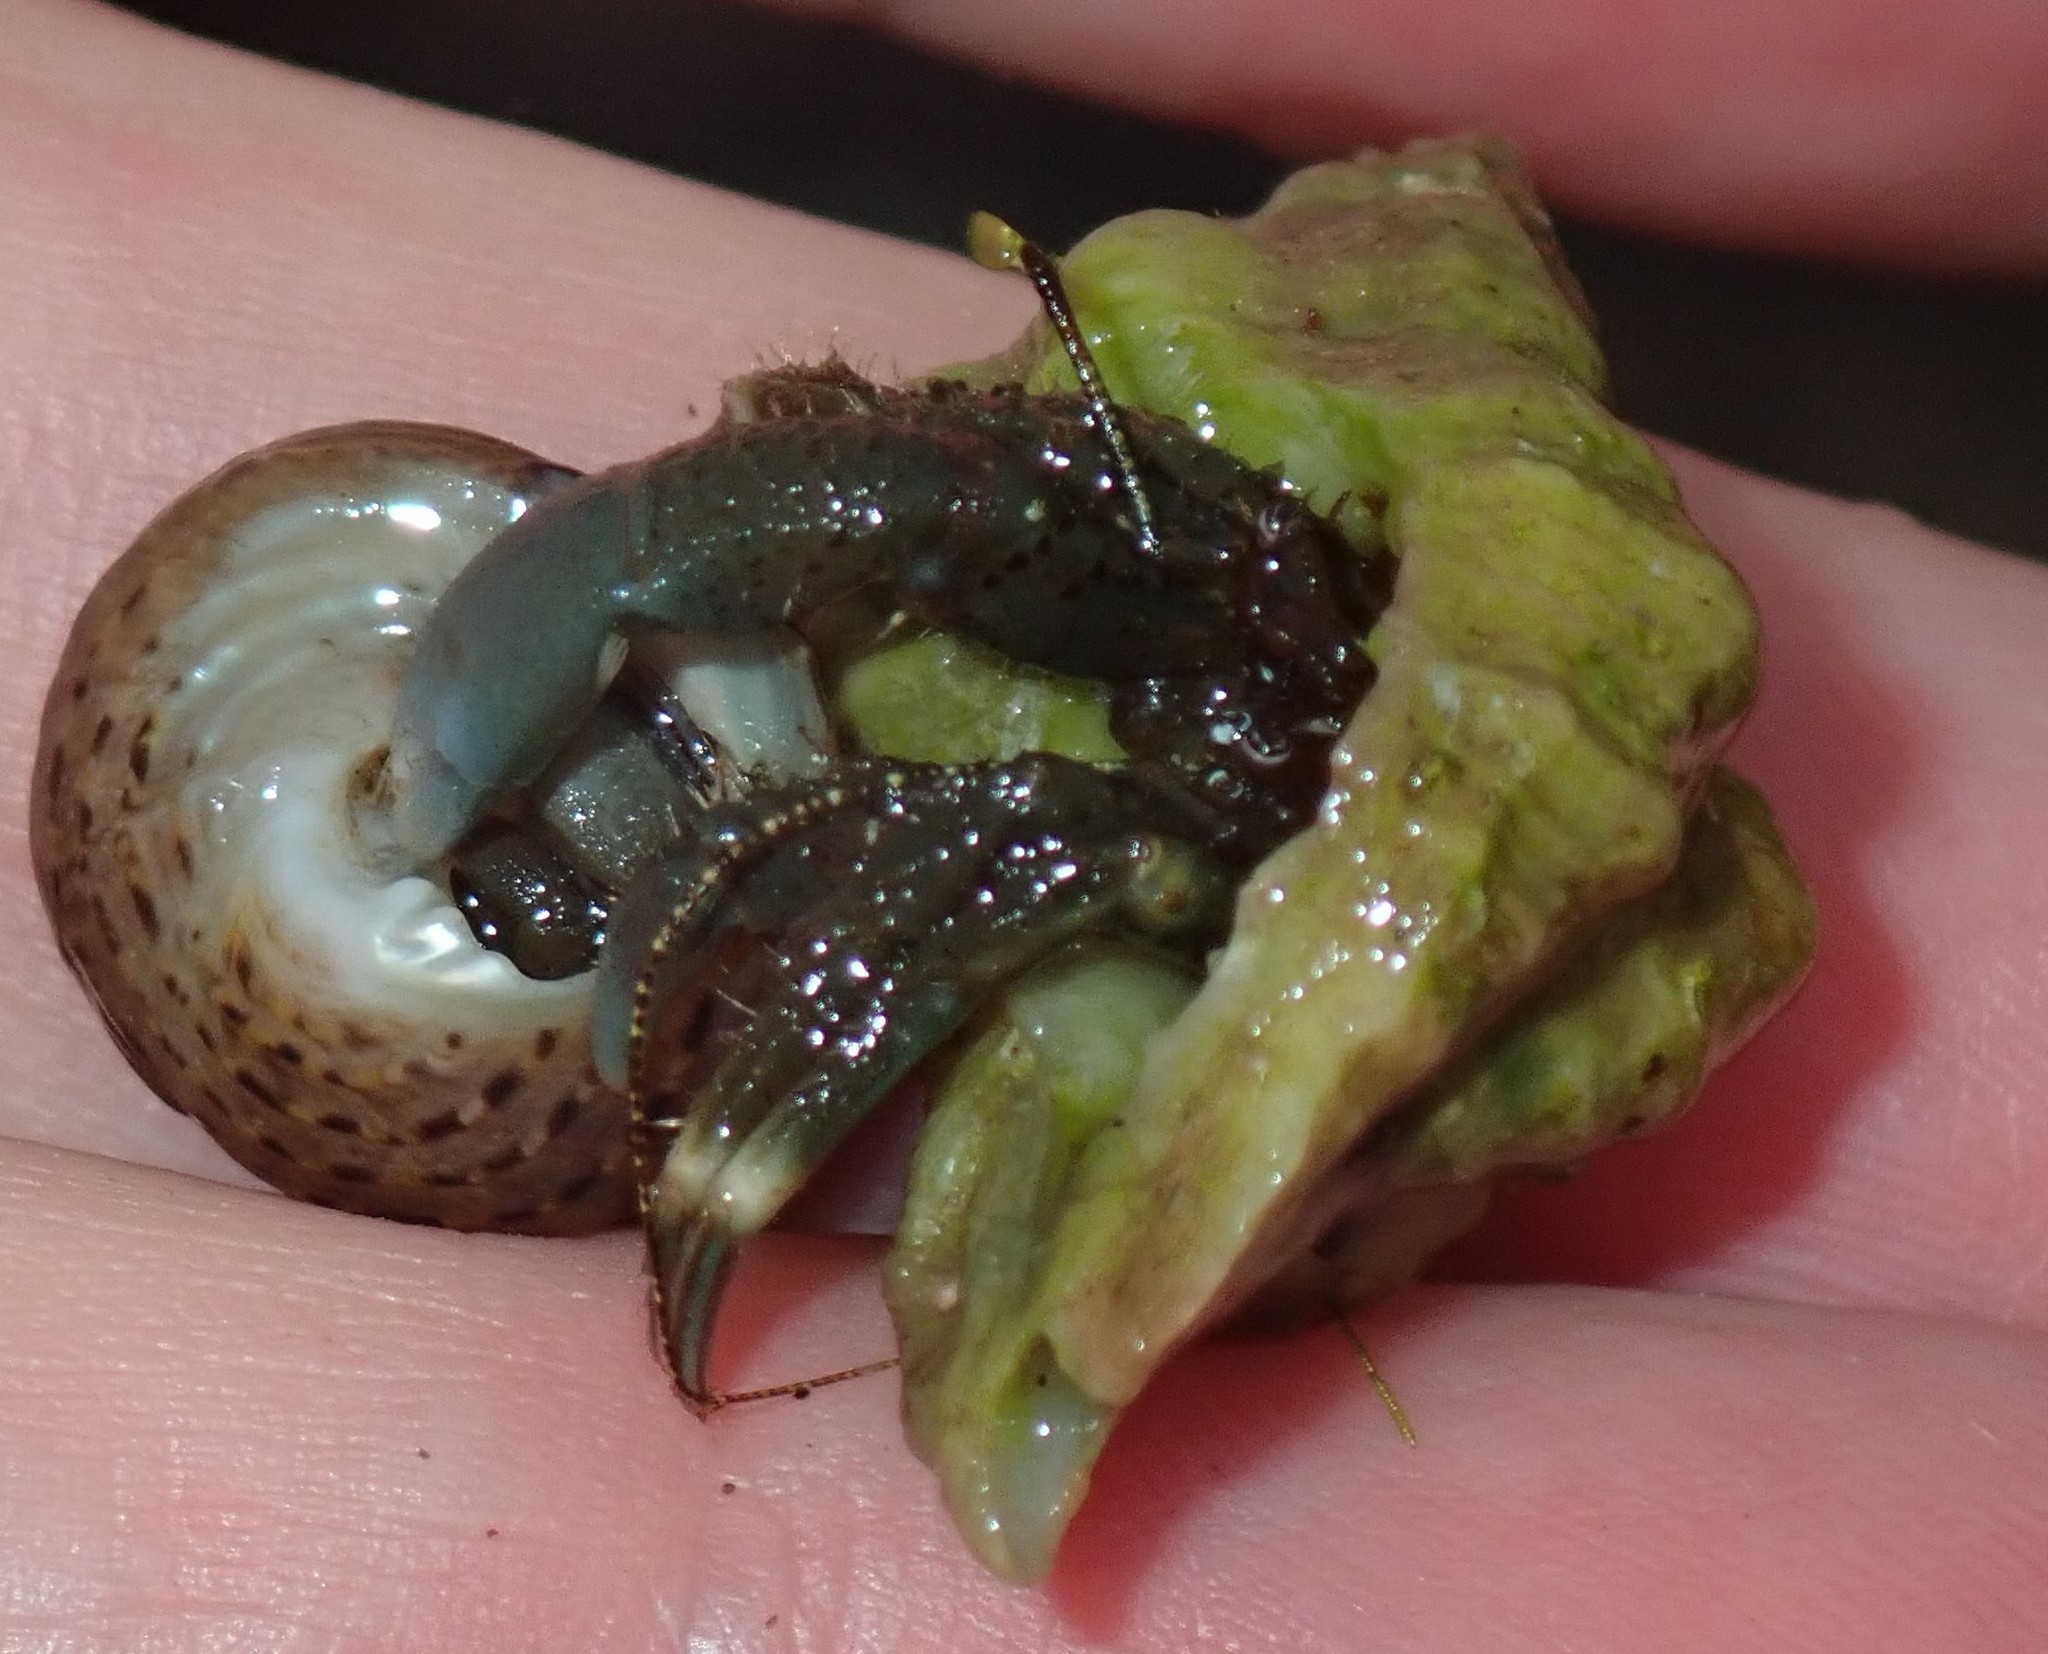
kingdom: Animalia
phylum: Arthropoda
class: Malacostraca
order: Decapoda
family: Paguridae
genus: Pagurus
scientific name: Pagurus venturensis
